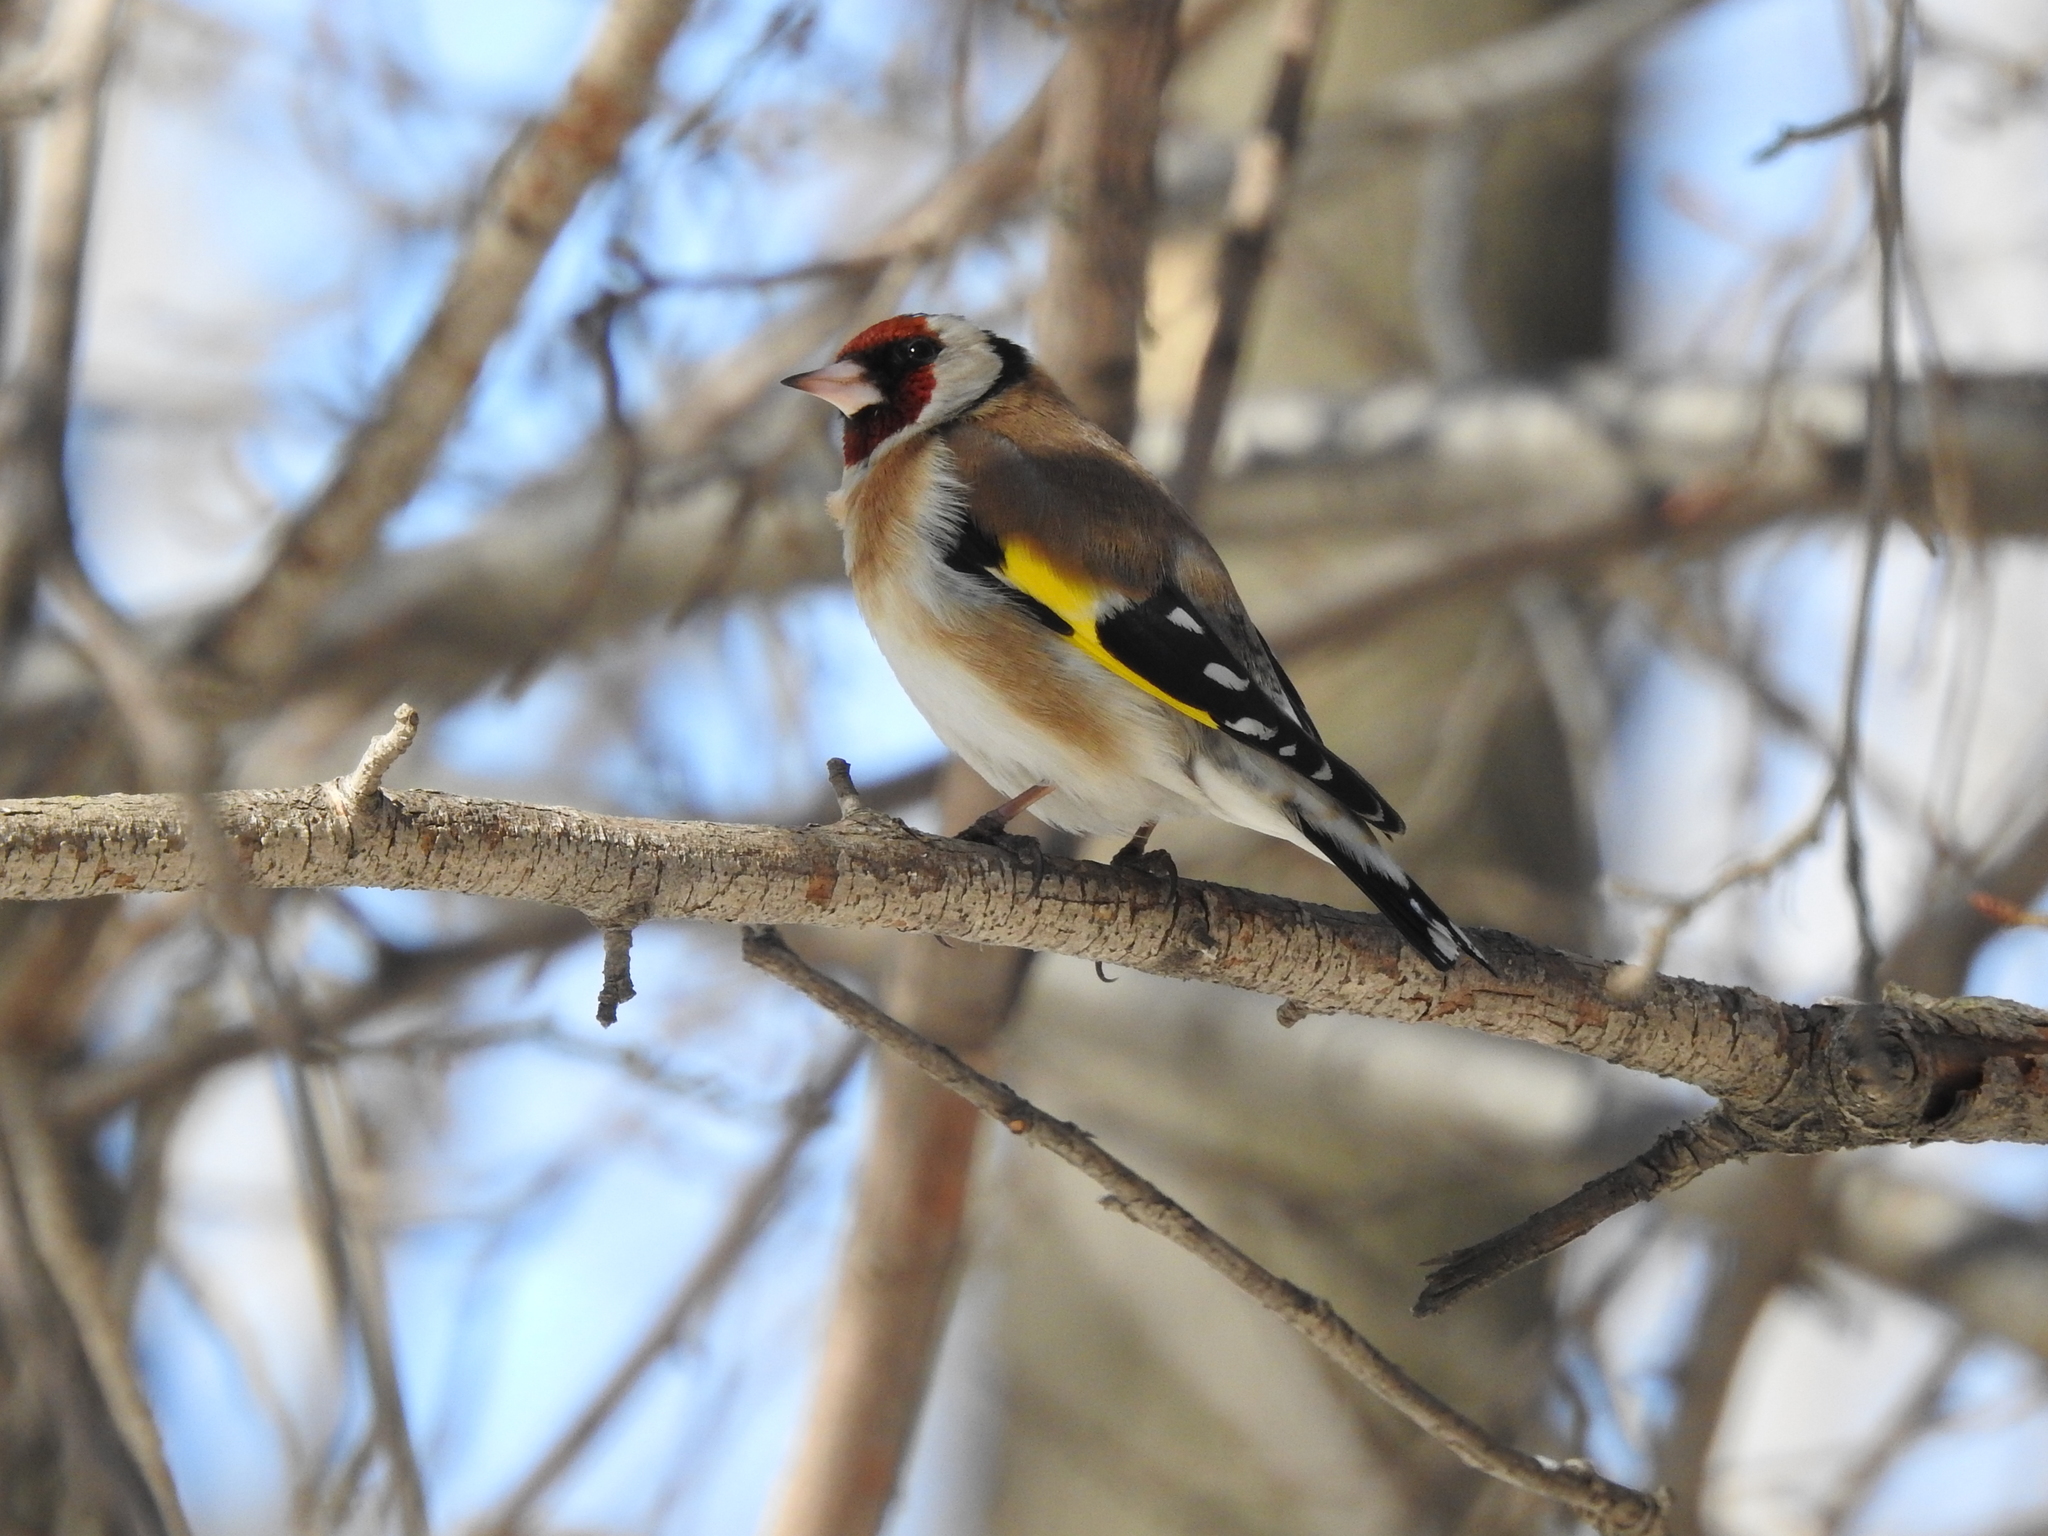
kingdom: Animalia
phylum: Chordata
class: Aves
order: Passeriformes
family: Fringillidae
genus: Carduelis
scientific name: Carduelis carduelis
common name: European goldfinch
